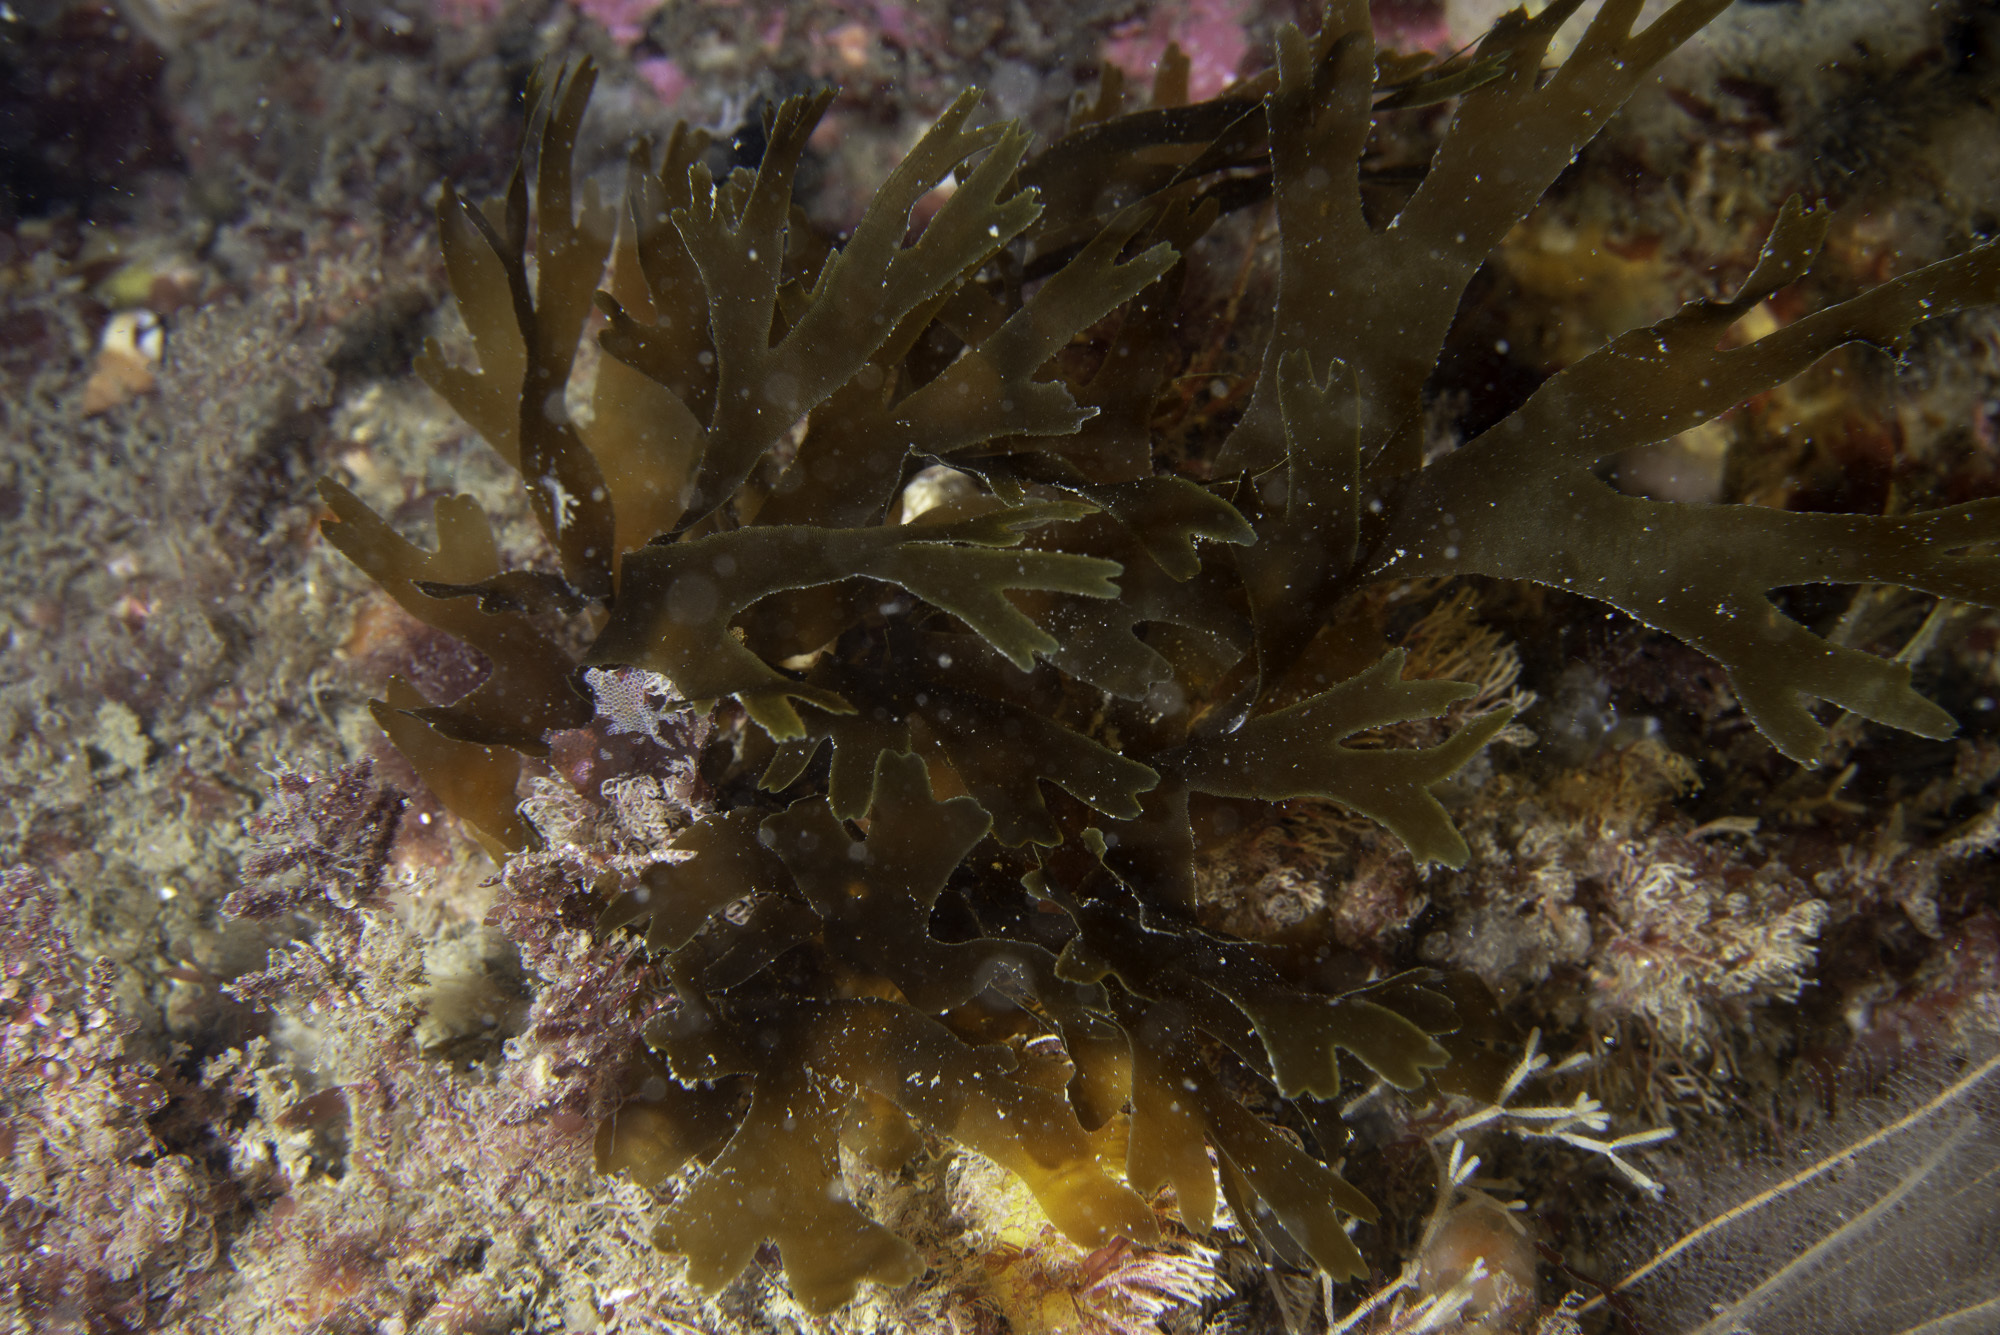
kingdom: Chromista
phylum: Ochrophyta
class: Phaeophyceae
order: Dictyotales
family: Dictyotaceae
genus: Dictyota
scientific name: Dictyota dichotoma
